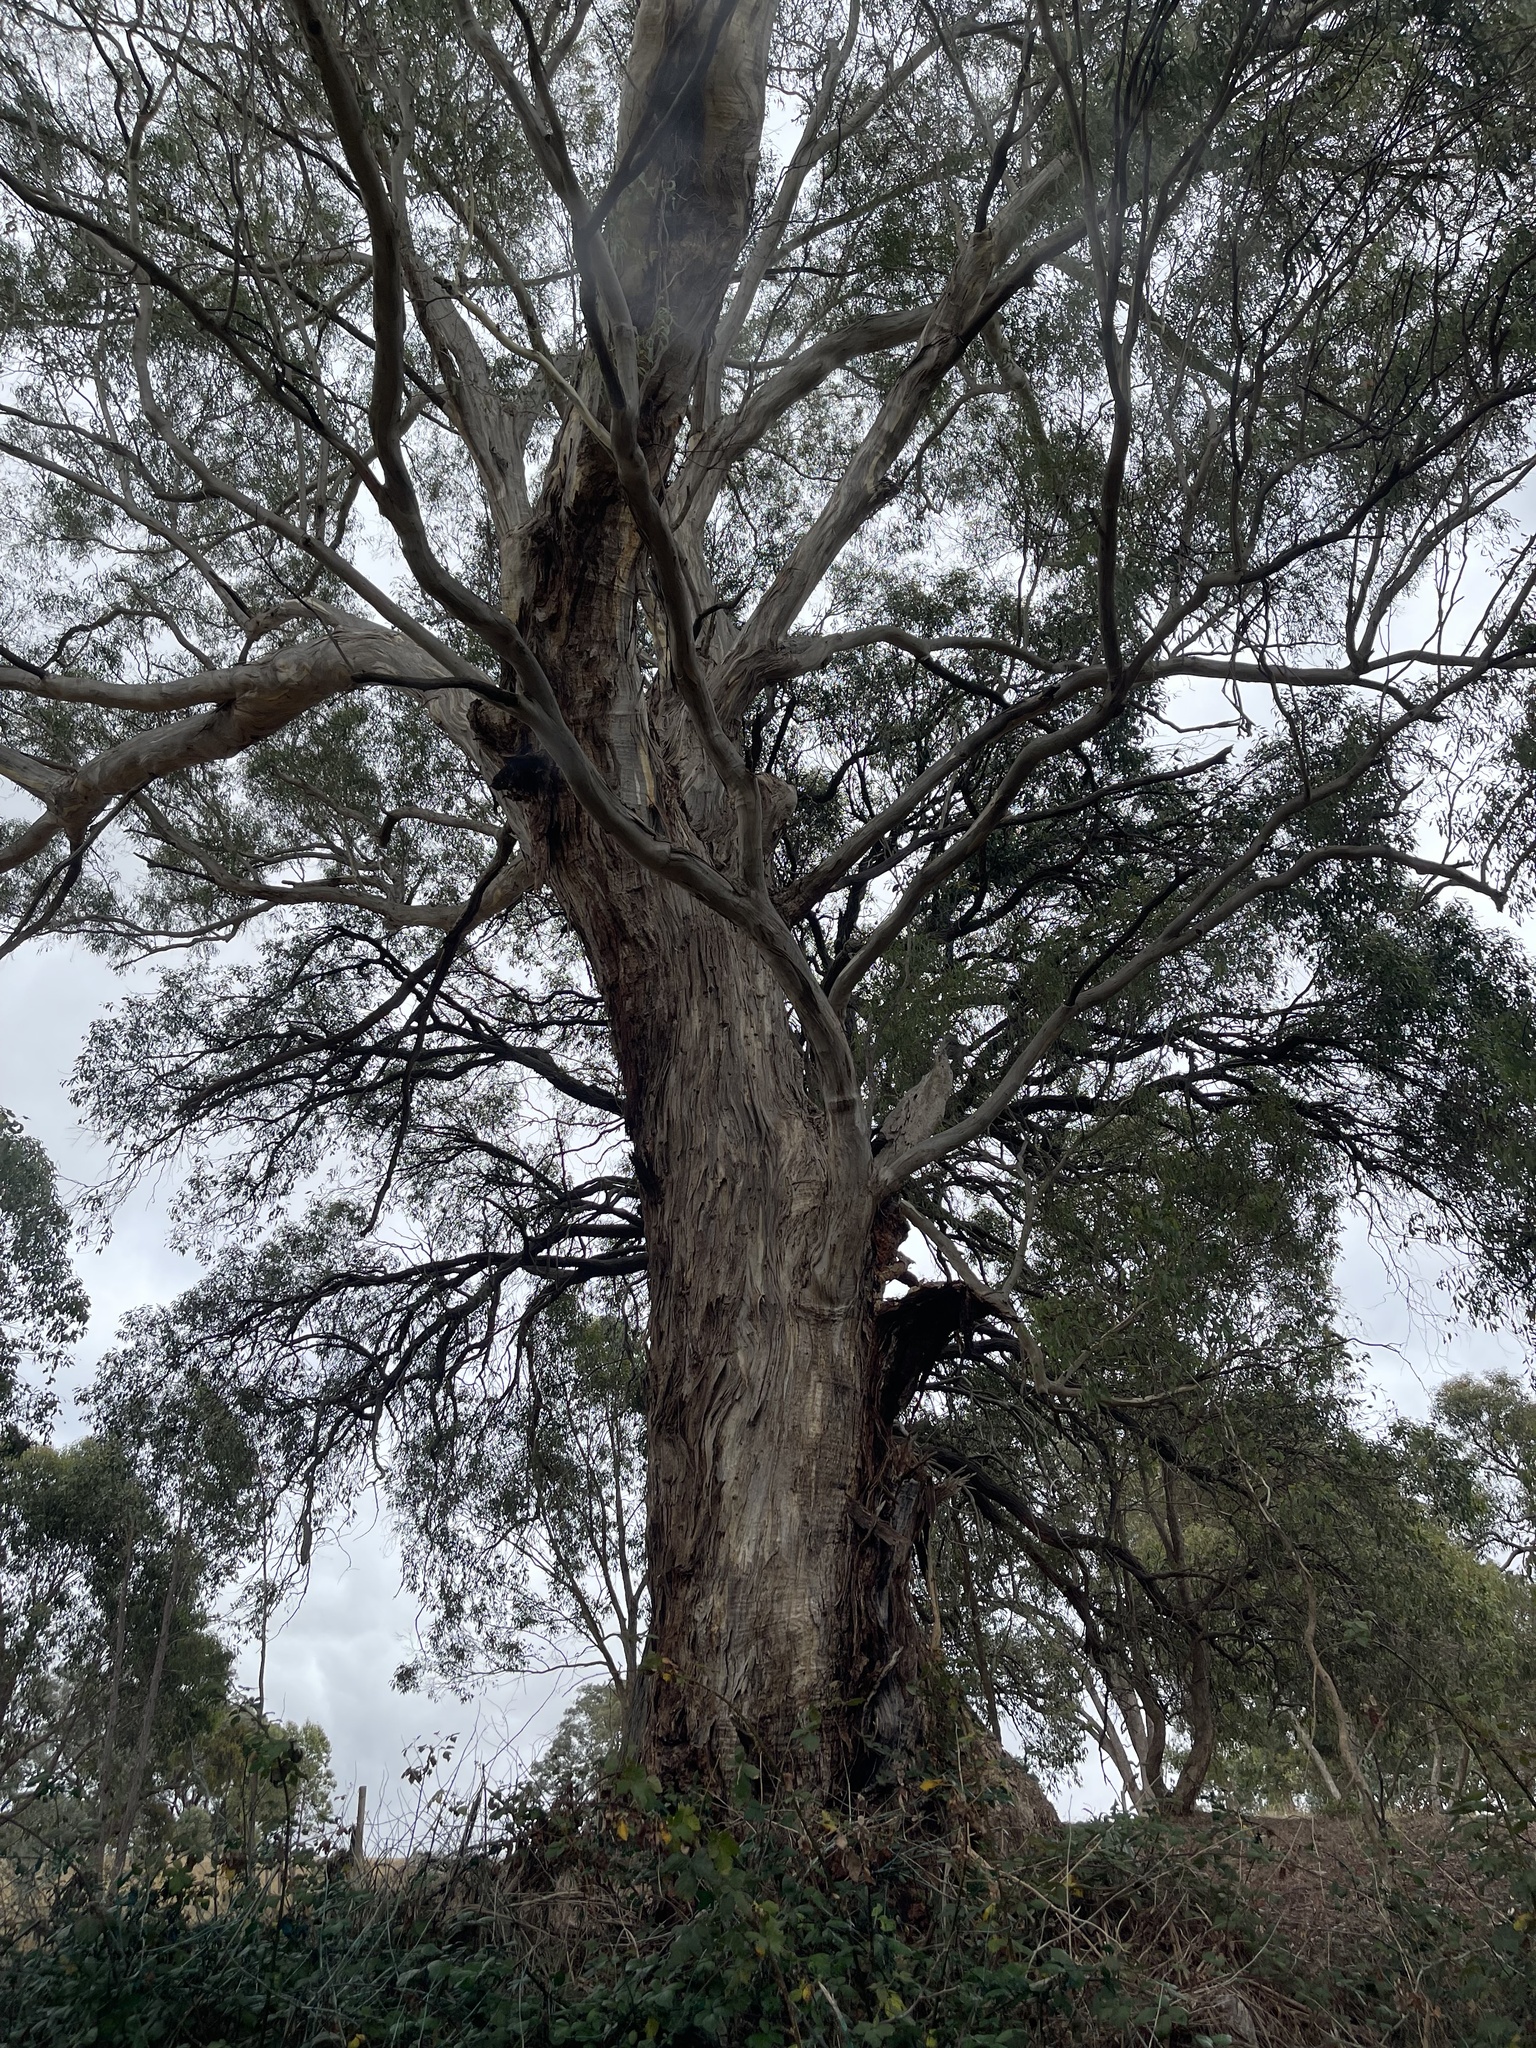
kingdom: Plantae
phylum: Tracheophyta
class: Magnoliopsida
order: Myrtales
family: Myrtaceae
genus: Eucalyptus
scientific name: Eucalyptus melliodora
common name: Yellow ironbox
